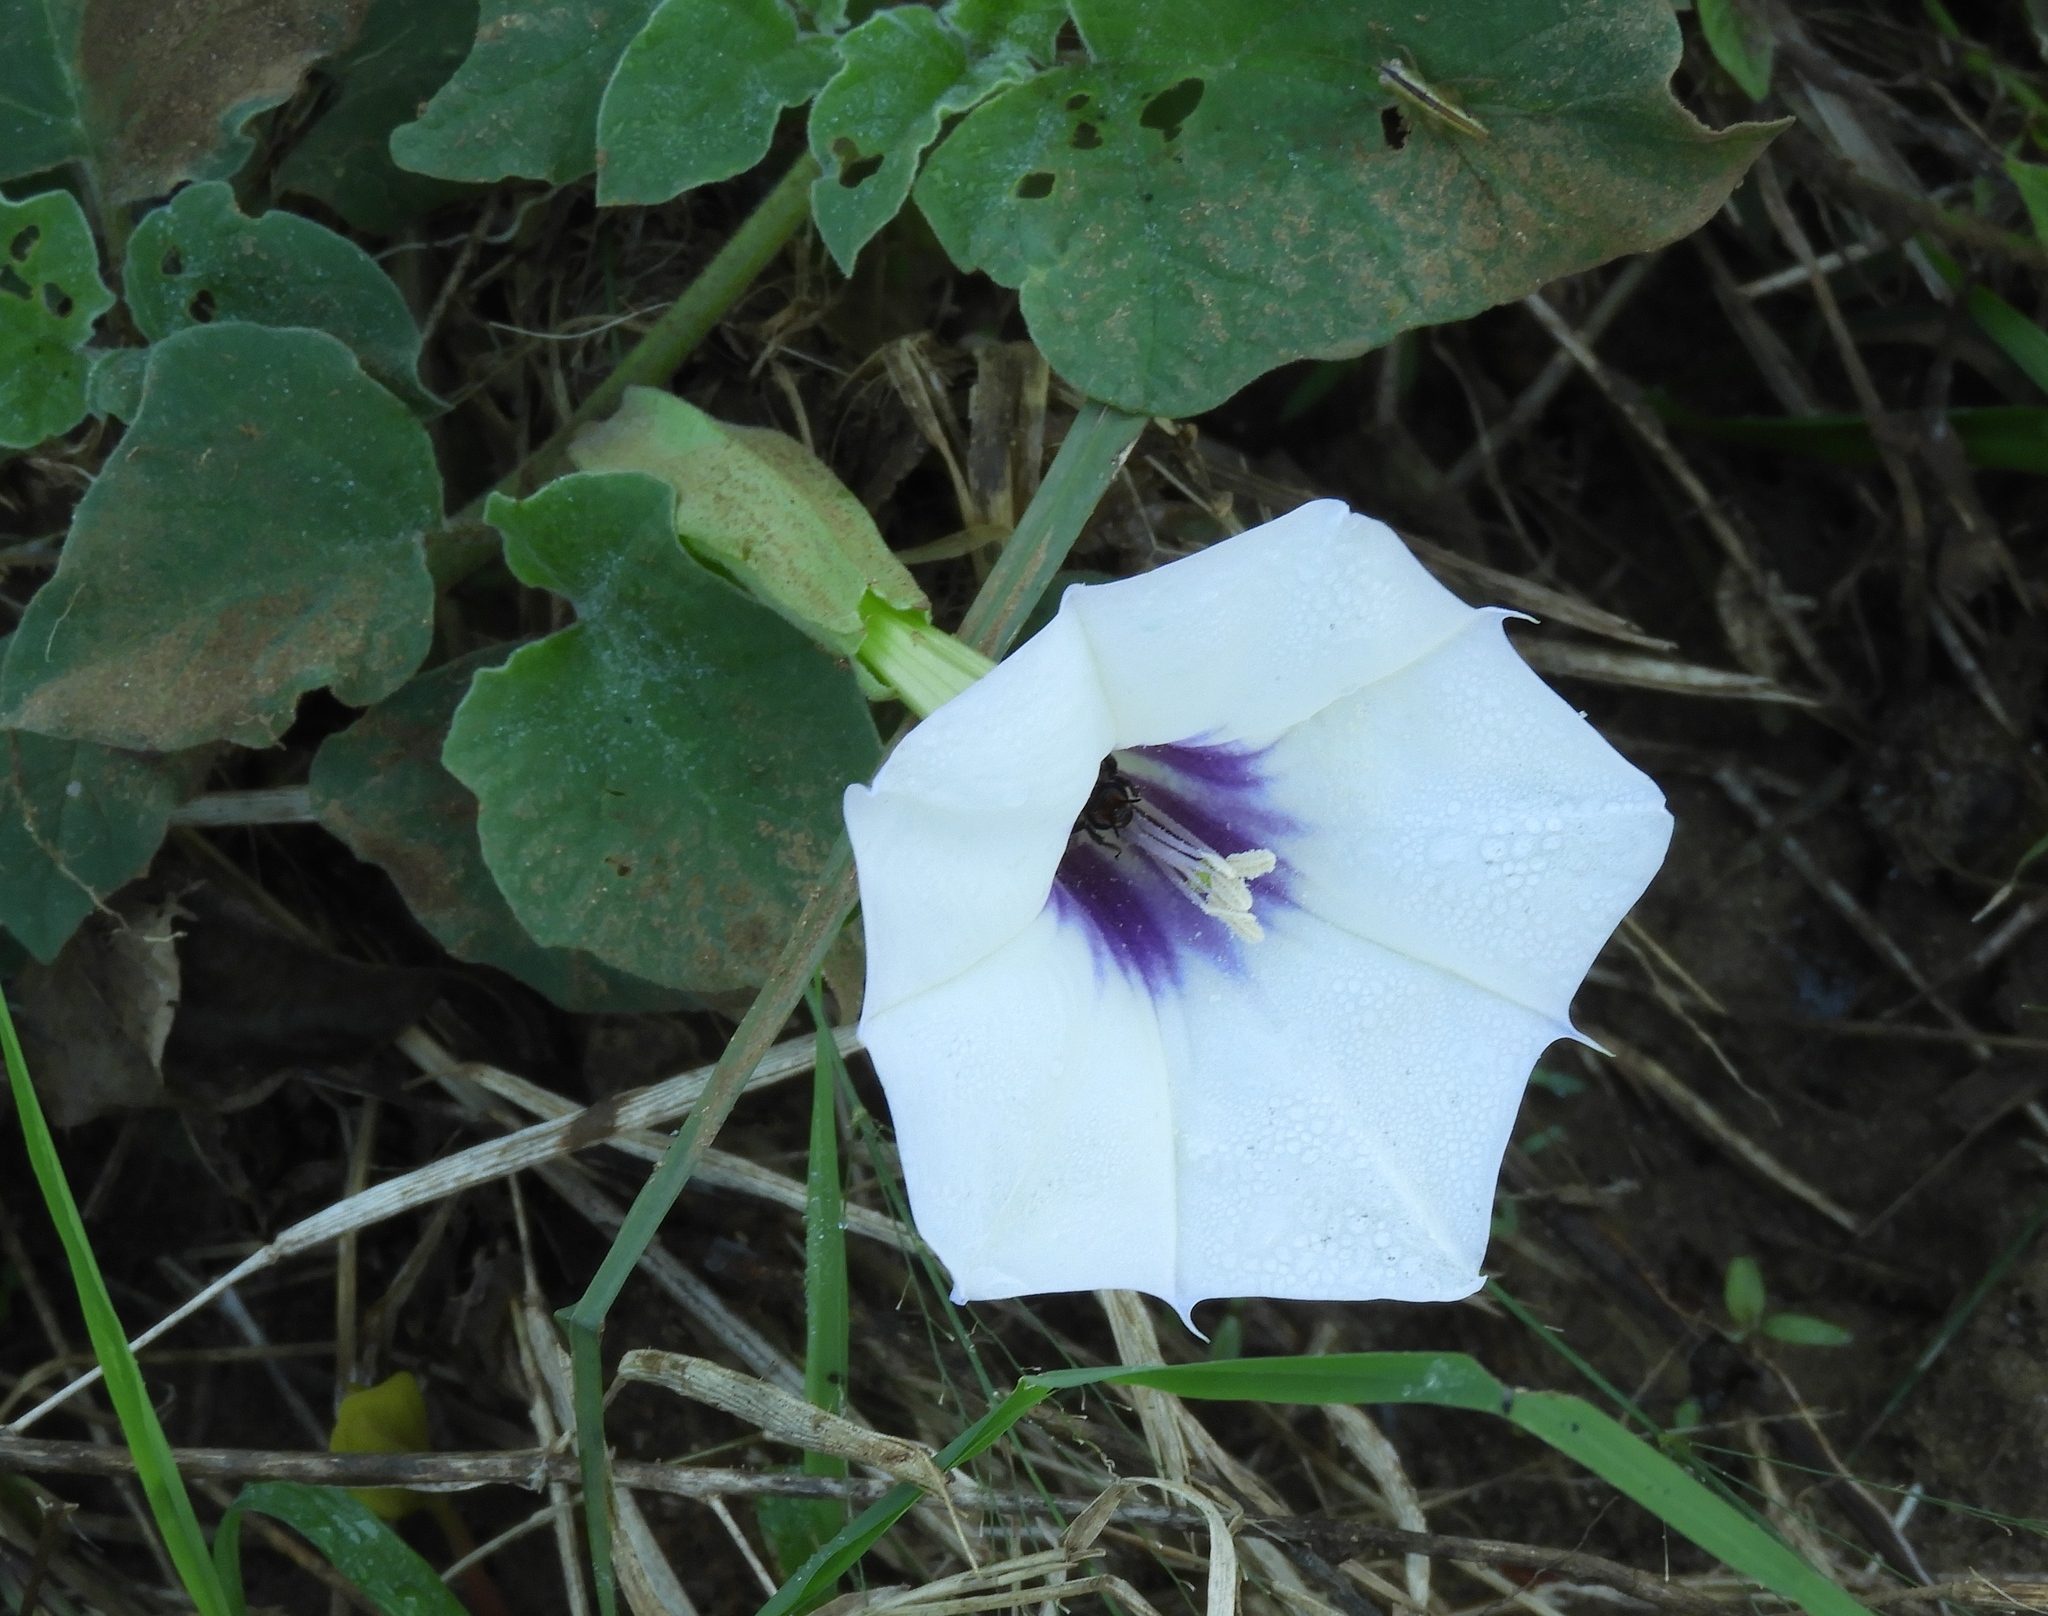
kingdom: Plantae
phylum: Tracheophyta
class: Magnoliopsida
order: Solanales
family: Solanaceae
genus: Datura
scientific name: Datura discolor
